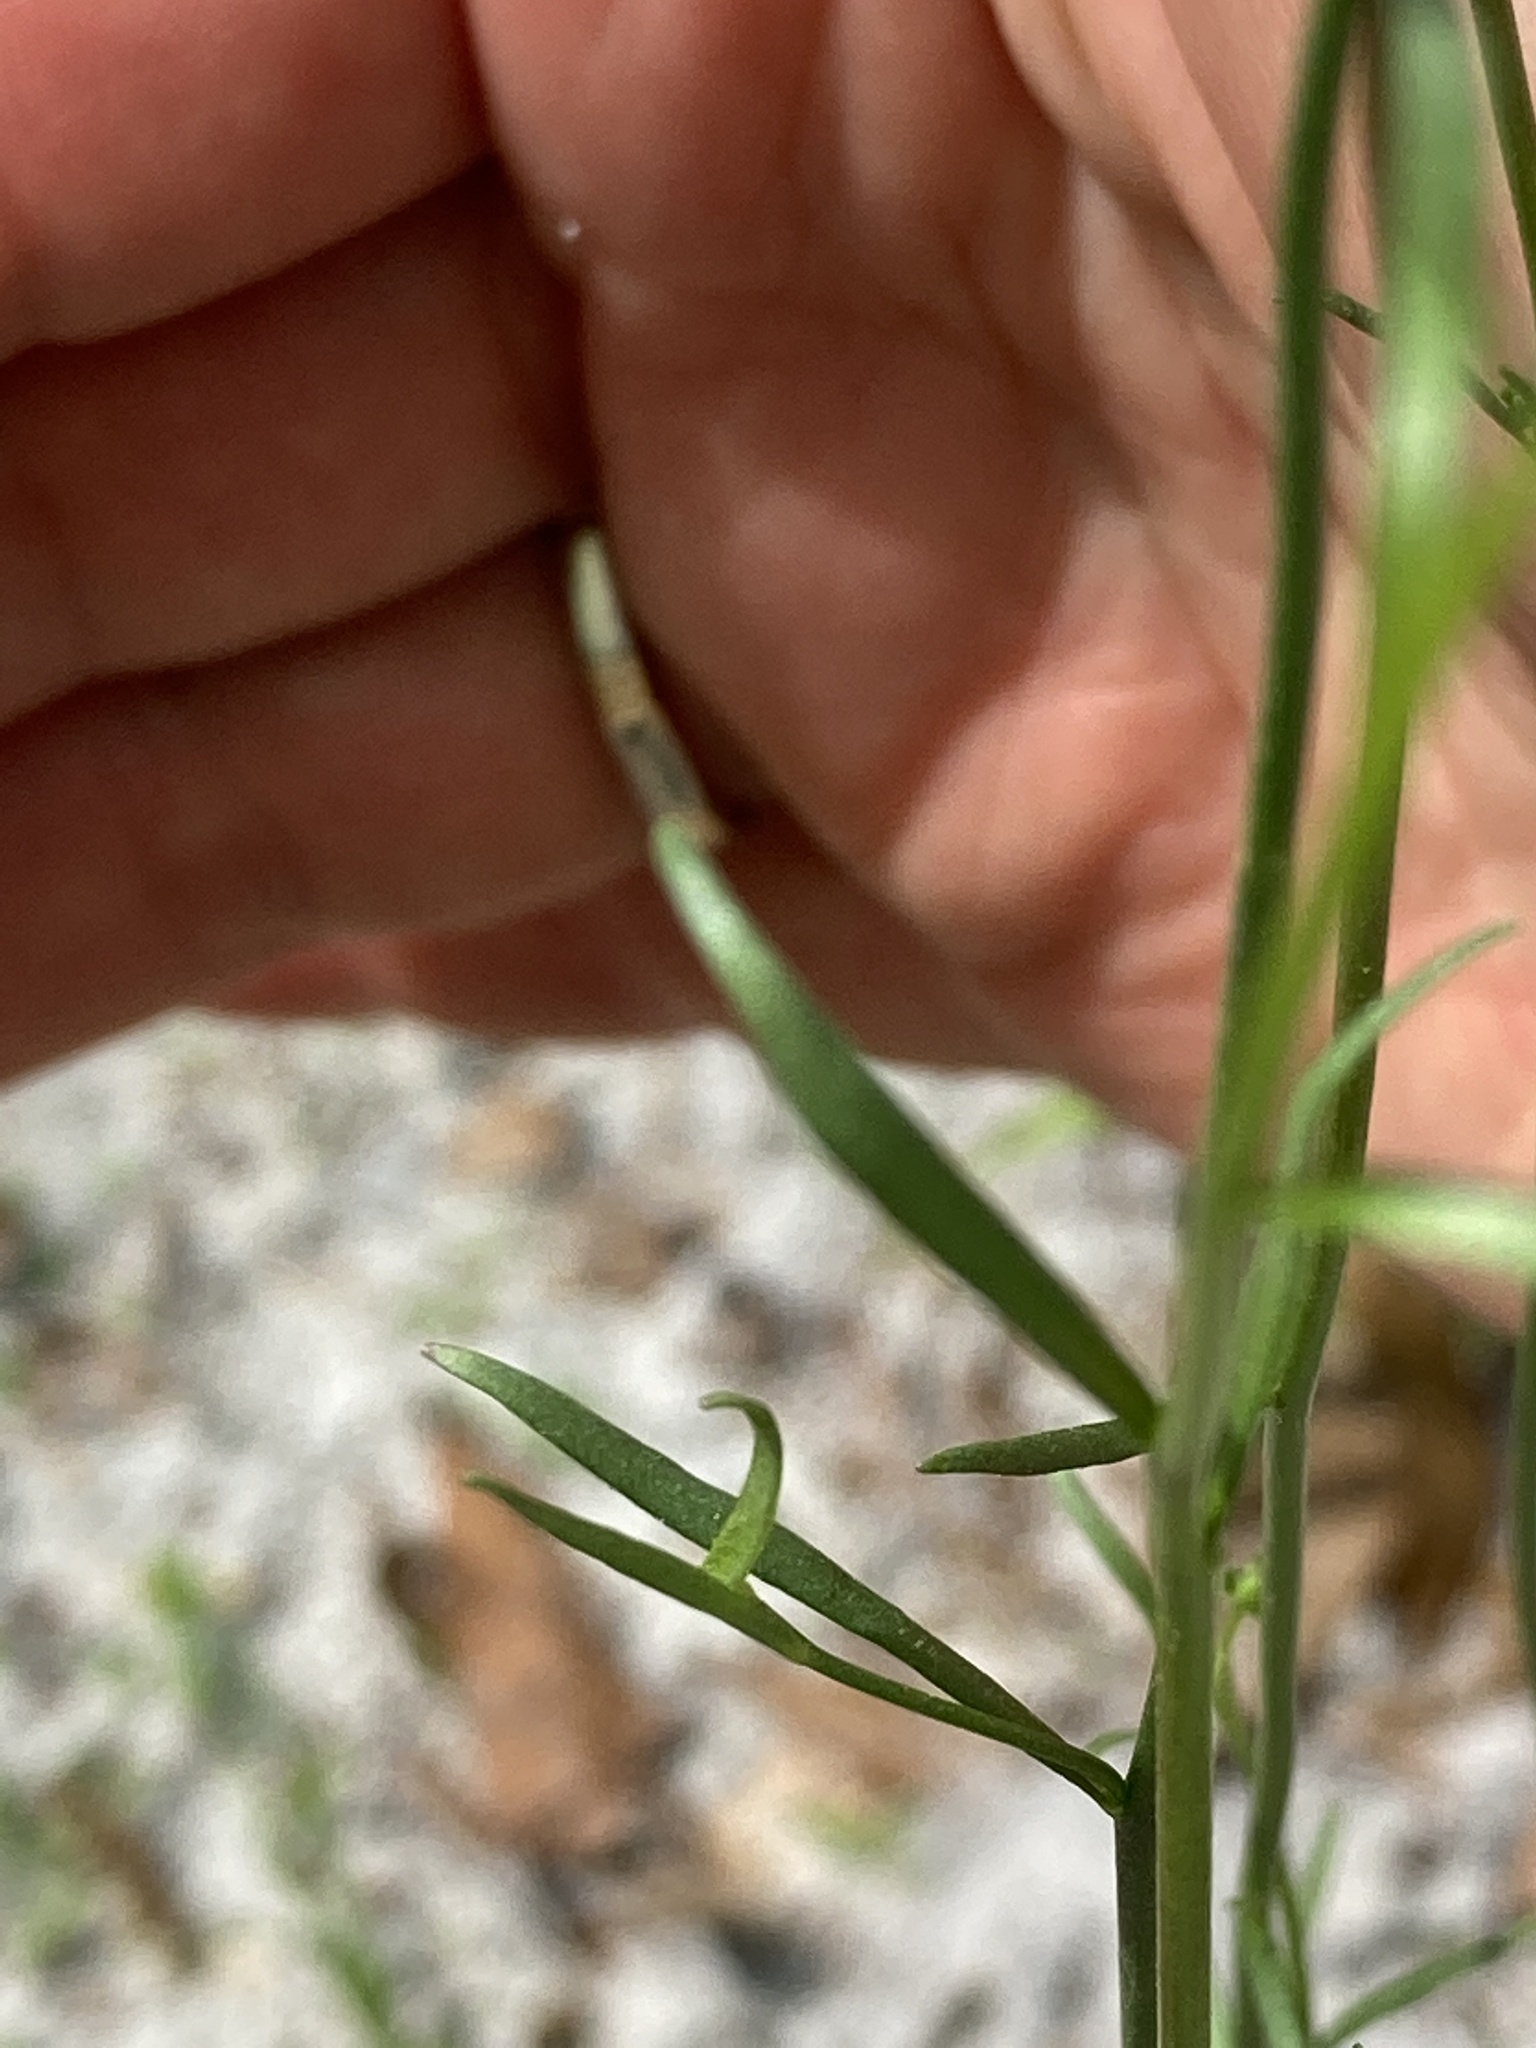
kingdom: Plantae
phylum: Tracheophyta
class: Magnoliopsida
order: Lamiales
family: Plantaginaceae
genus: Nuttallanthus
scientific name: Nuttallanthus canadensis
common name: Blue toadflax
